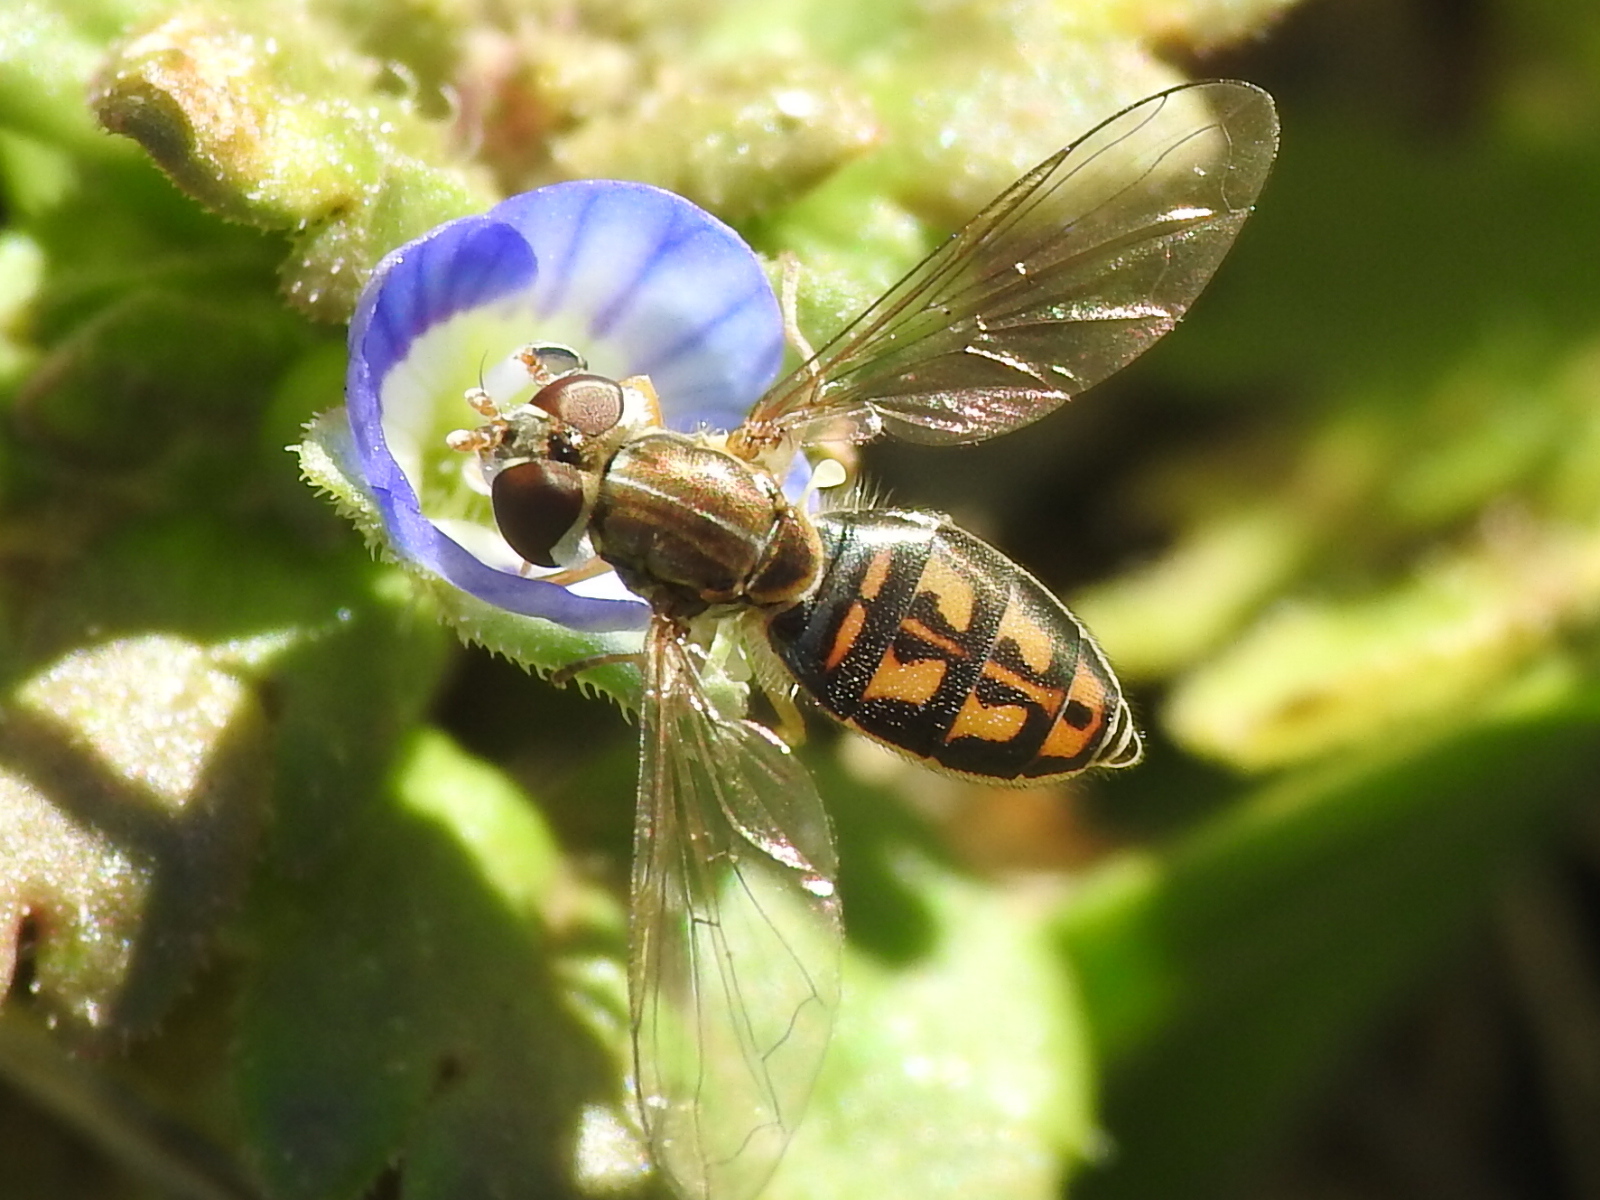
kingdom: Animalia
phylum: Arthropoda
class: Insecta
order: Diptera
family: Syrphidae
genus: Toxomerus
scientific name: Toxomerus marginatus
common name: Syrphid fly
